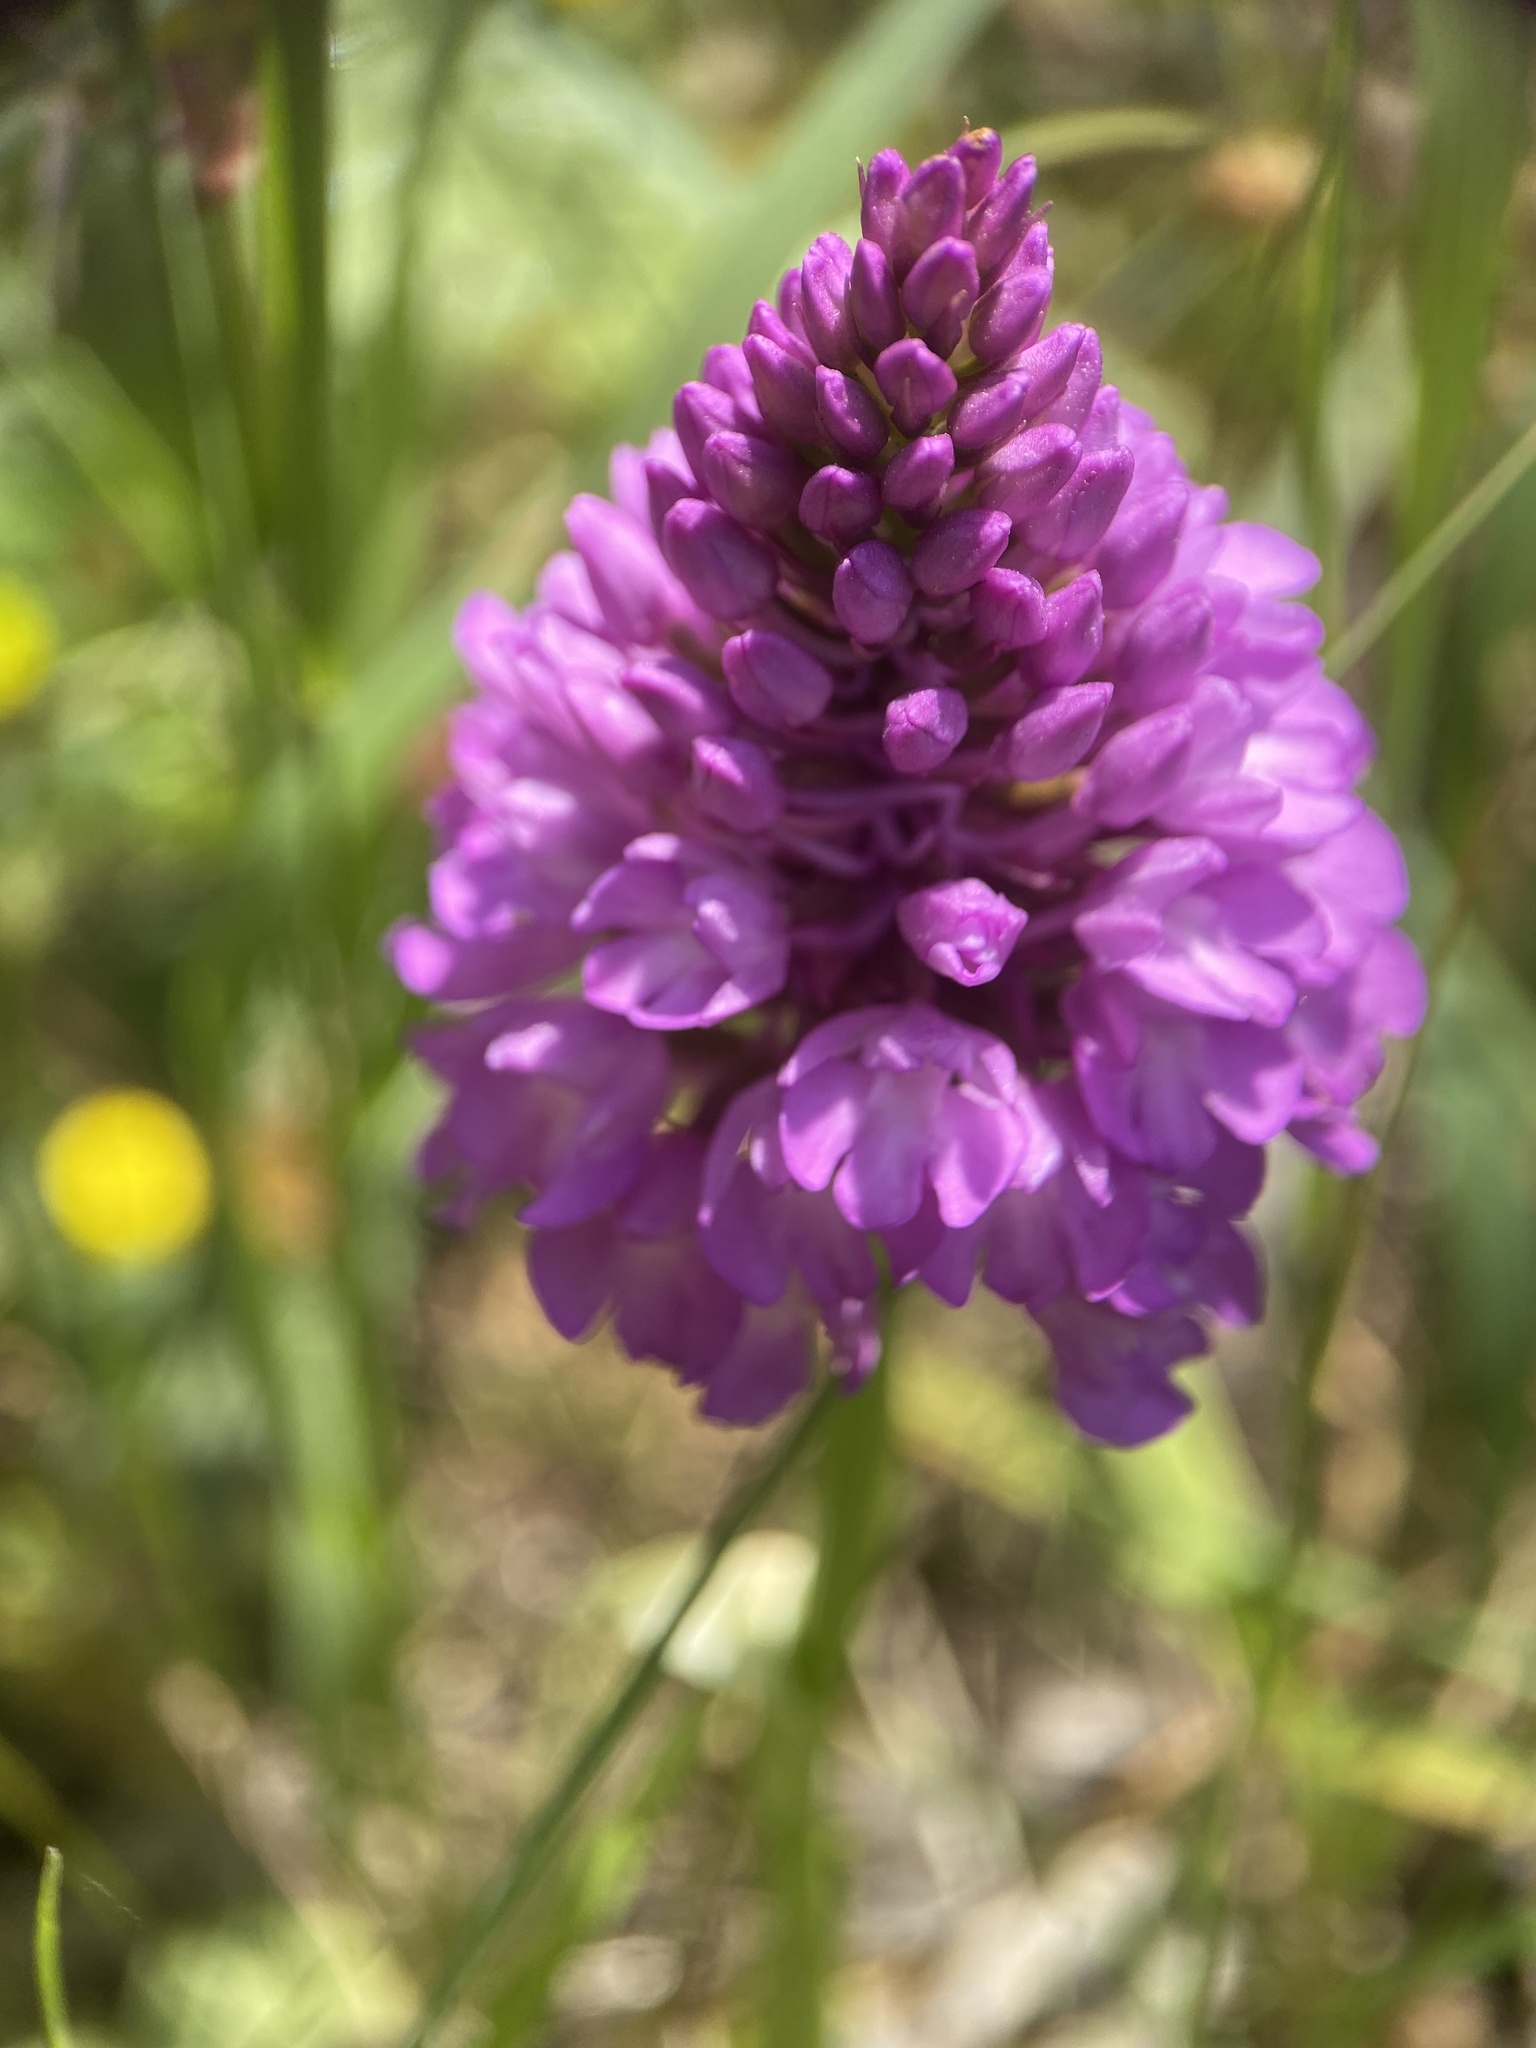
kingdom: Plantae
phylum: Tracheophyta
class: Liliopsida
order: Asparagales
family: Orchidaceae
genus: Anacamptis
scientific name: Anacamptis pyramidalis
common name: Pyramidal orchid
